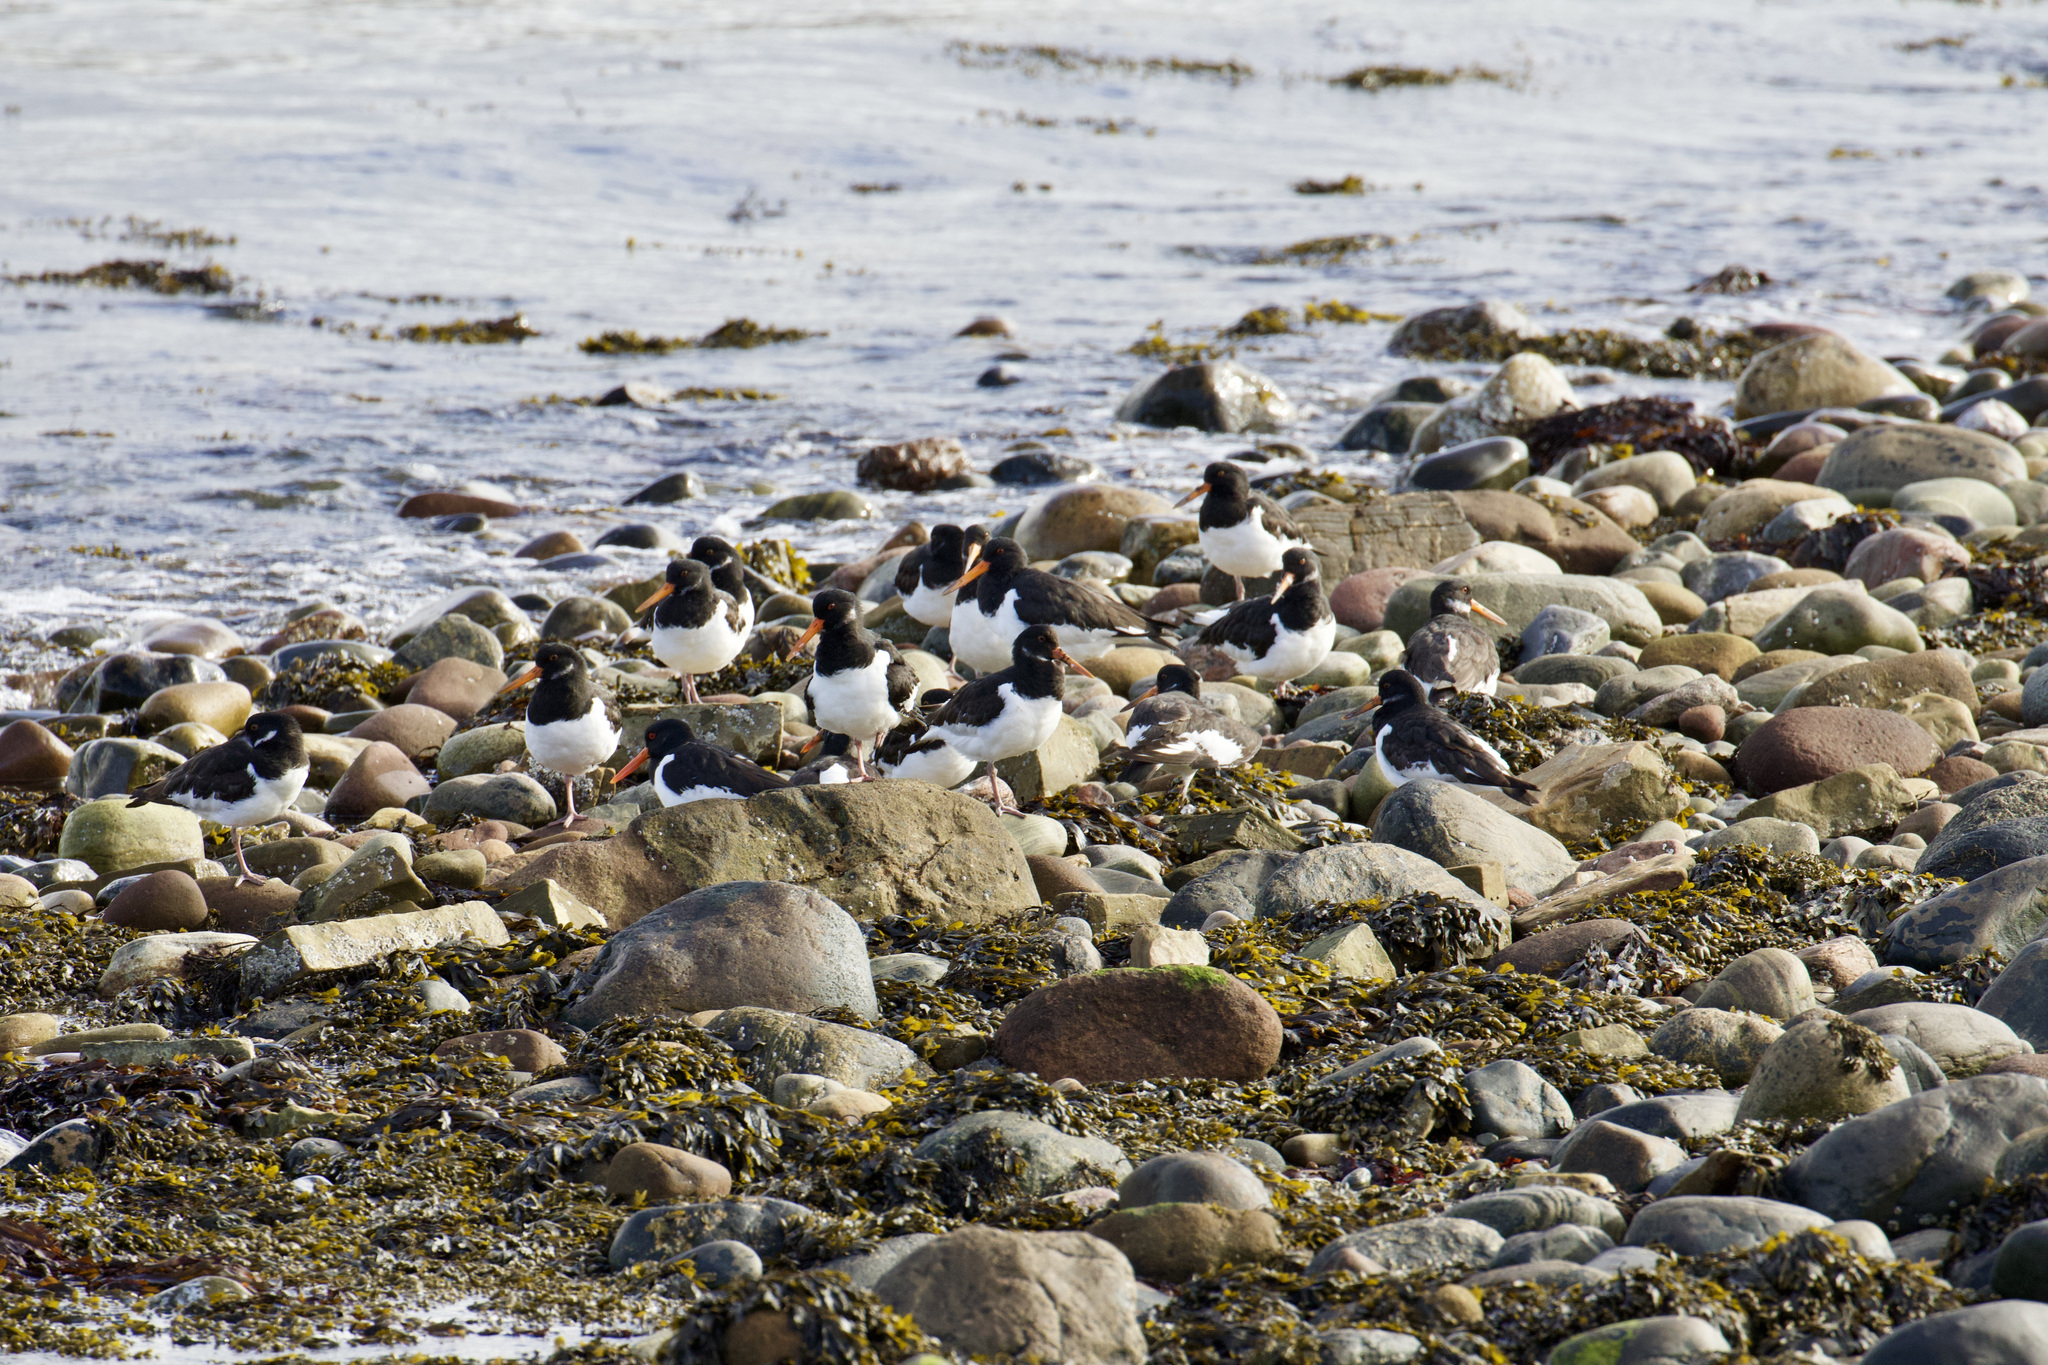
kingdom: Animalia
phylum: Chordata
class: Aves
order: Charadriiformes
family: Haematopodidae
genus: Haematopus
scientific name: Haematopus ostralegus
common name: Eurasian oystercatcher
